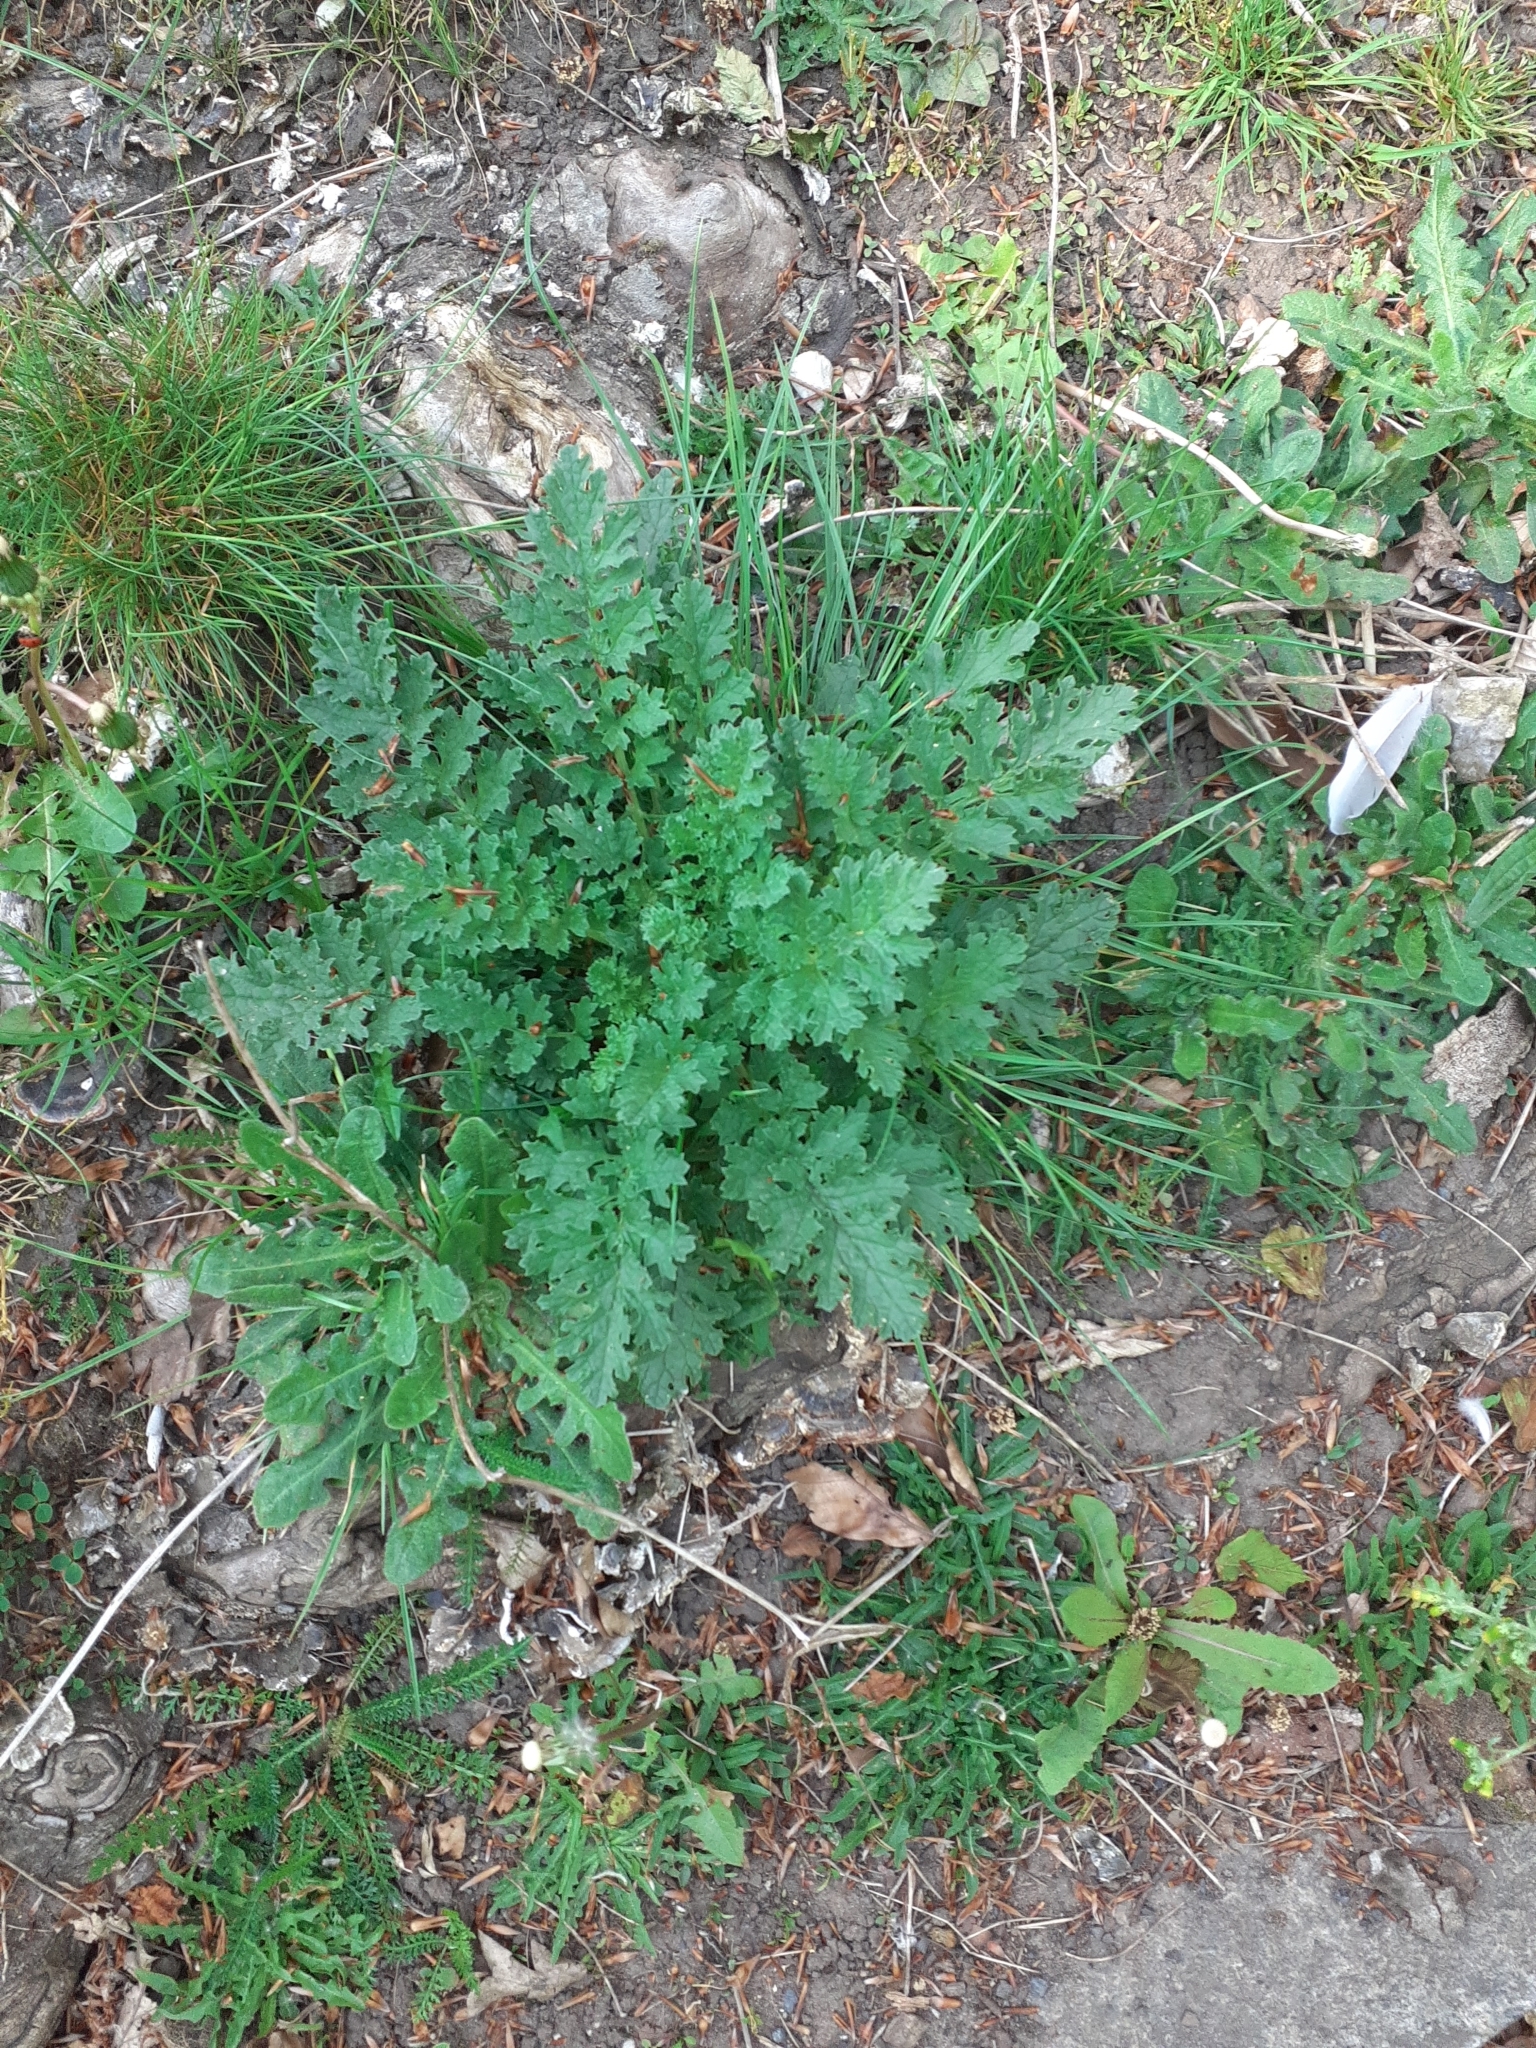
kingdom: Plantae
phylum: Tracheophyta
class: Magnoliopsida
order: Asterales
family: Asteraceae
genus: Jacobaea
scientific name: Jacobaea vulgaris
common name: Stinking willie
